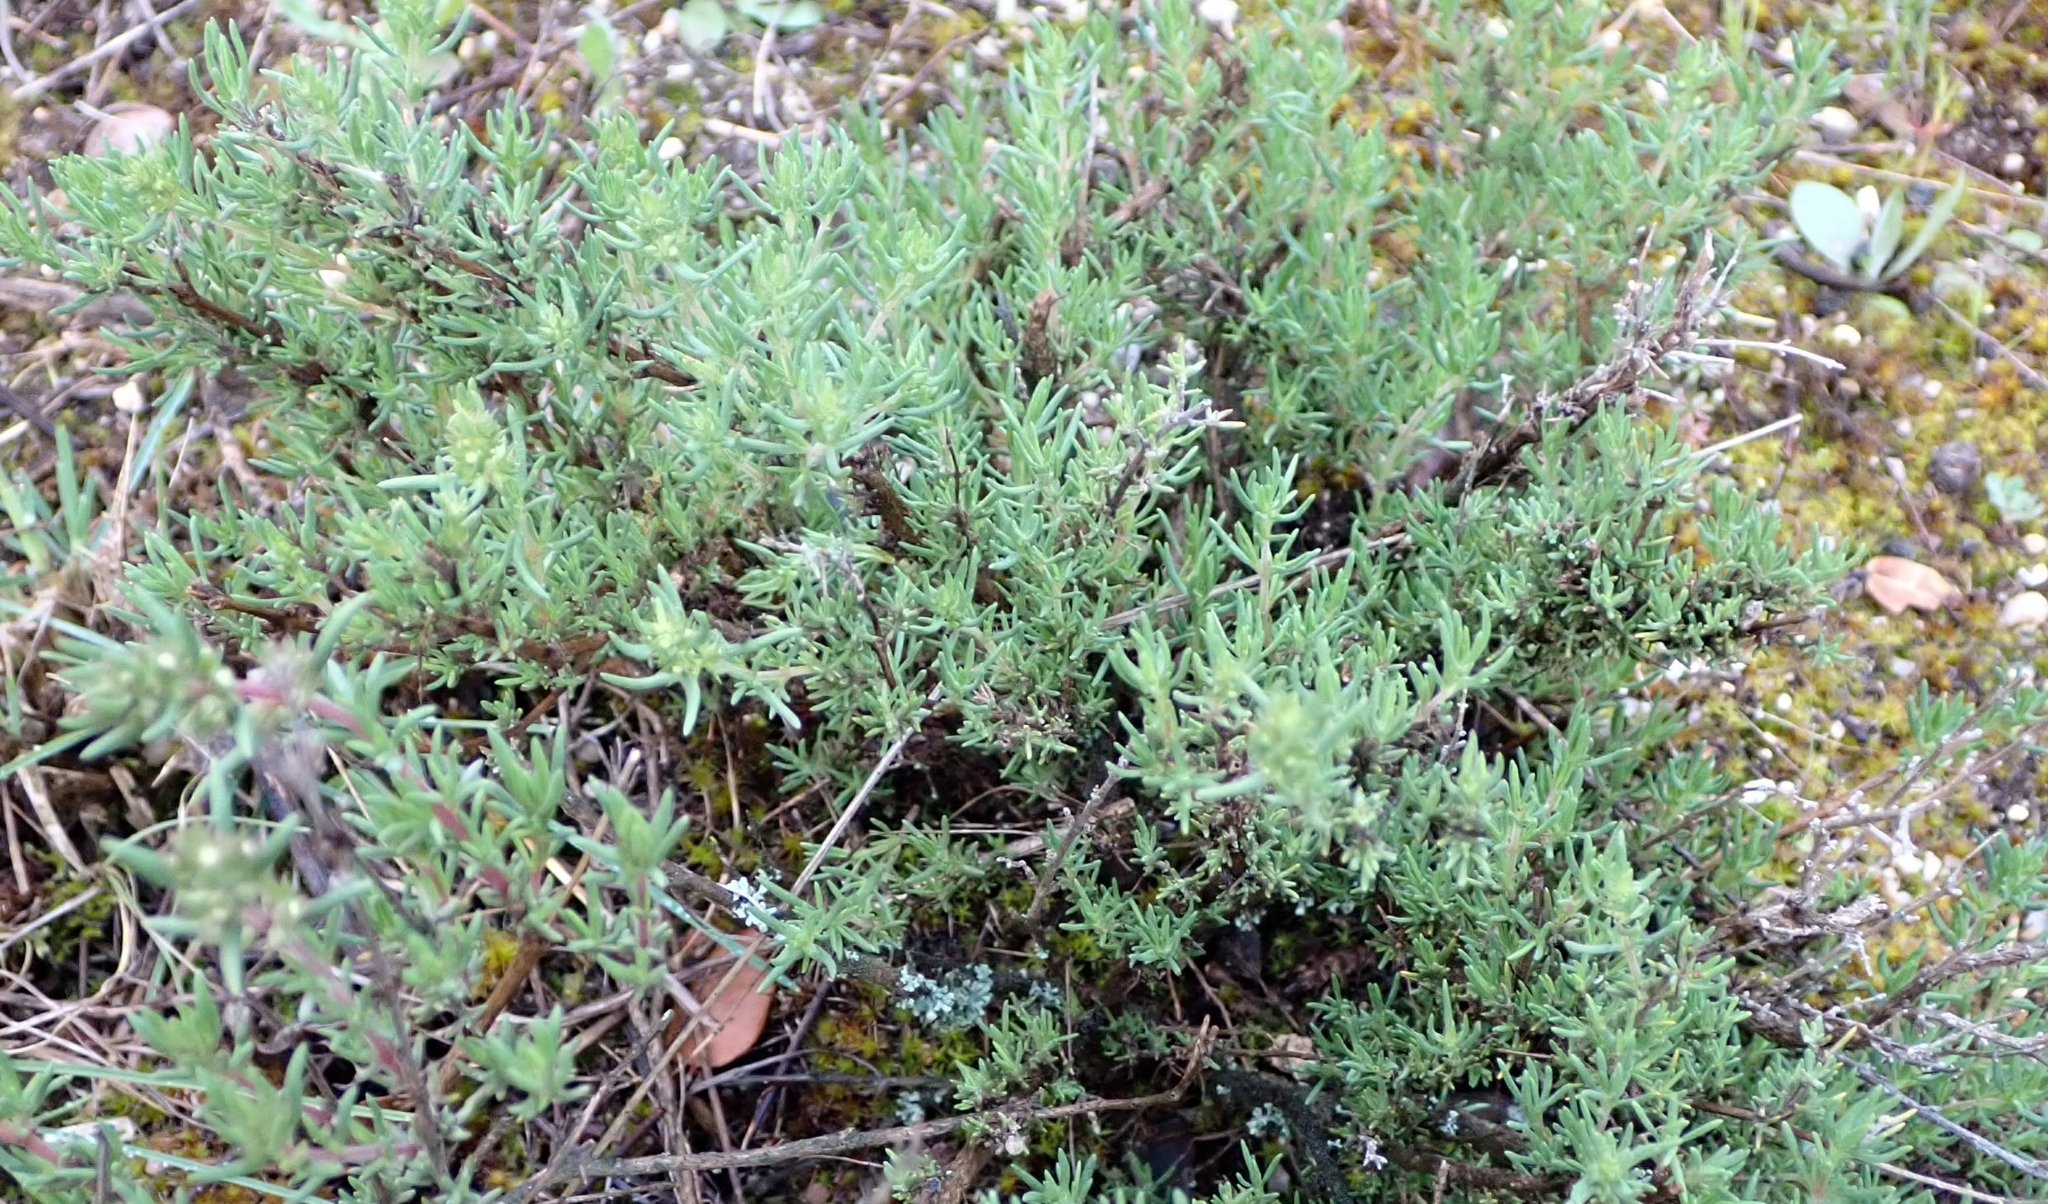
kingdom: Plantae
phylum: Tracheophyta
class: Magnoliopsida
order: Lamiales
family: Lamiaceae
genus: Thymus
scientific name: Thymus zygis
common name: White thyme
